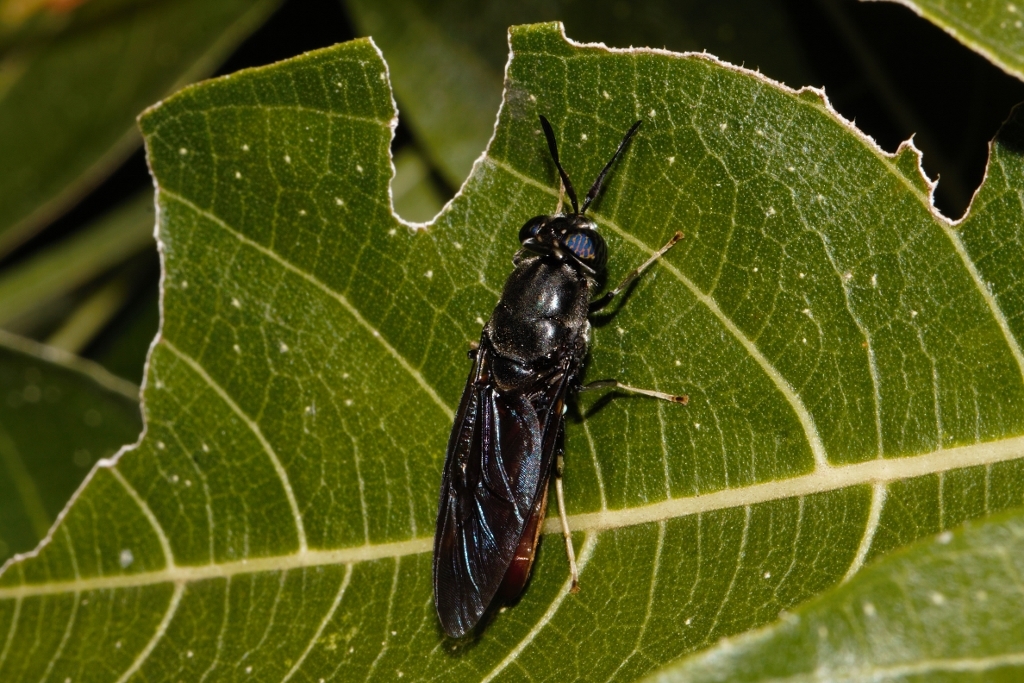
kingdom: Animalia
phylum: Arthropoda
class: Insecta
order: Diptera
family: Stratiomyidae
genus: Hermetia
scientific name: Hermetia illucens
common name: Black soldier fly
